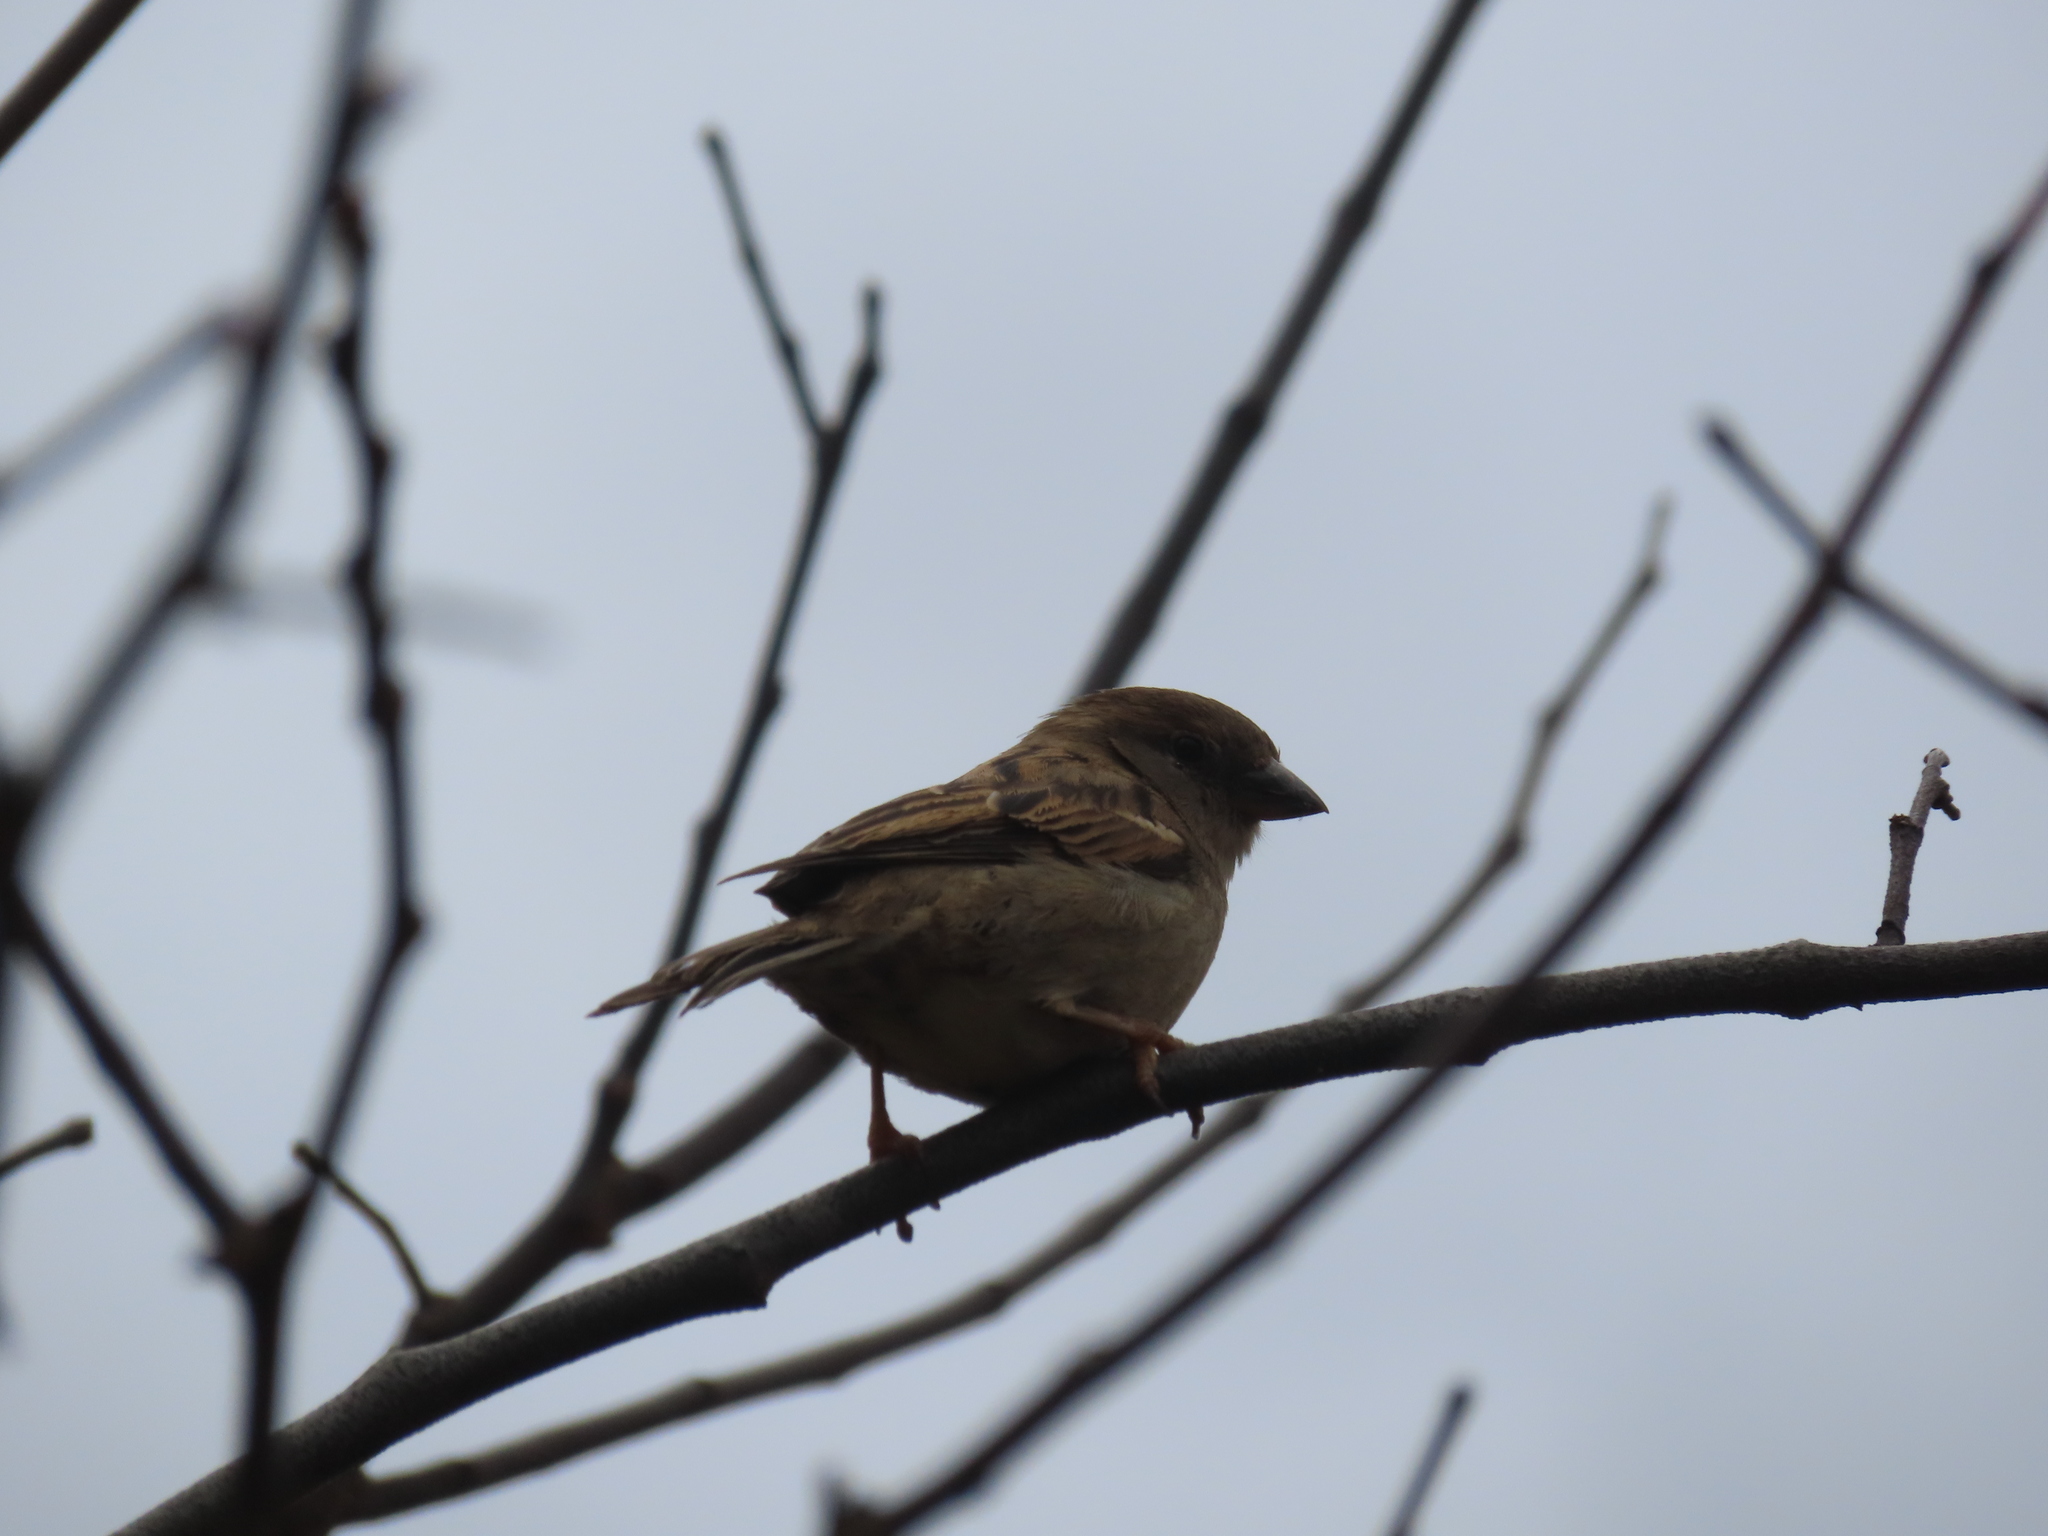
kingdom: Animalia
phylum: Chordata
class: Aves
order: Passeriformes
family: Passeridae
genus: Passer
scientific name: Passer domesticus
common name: House sparrow
